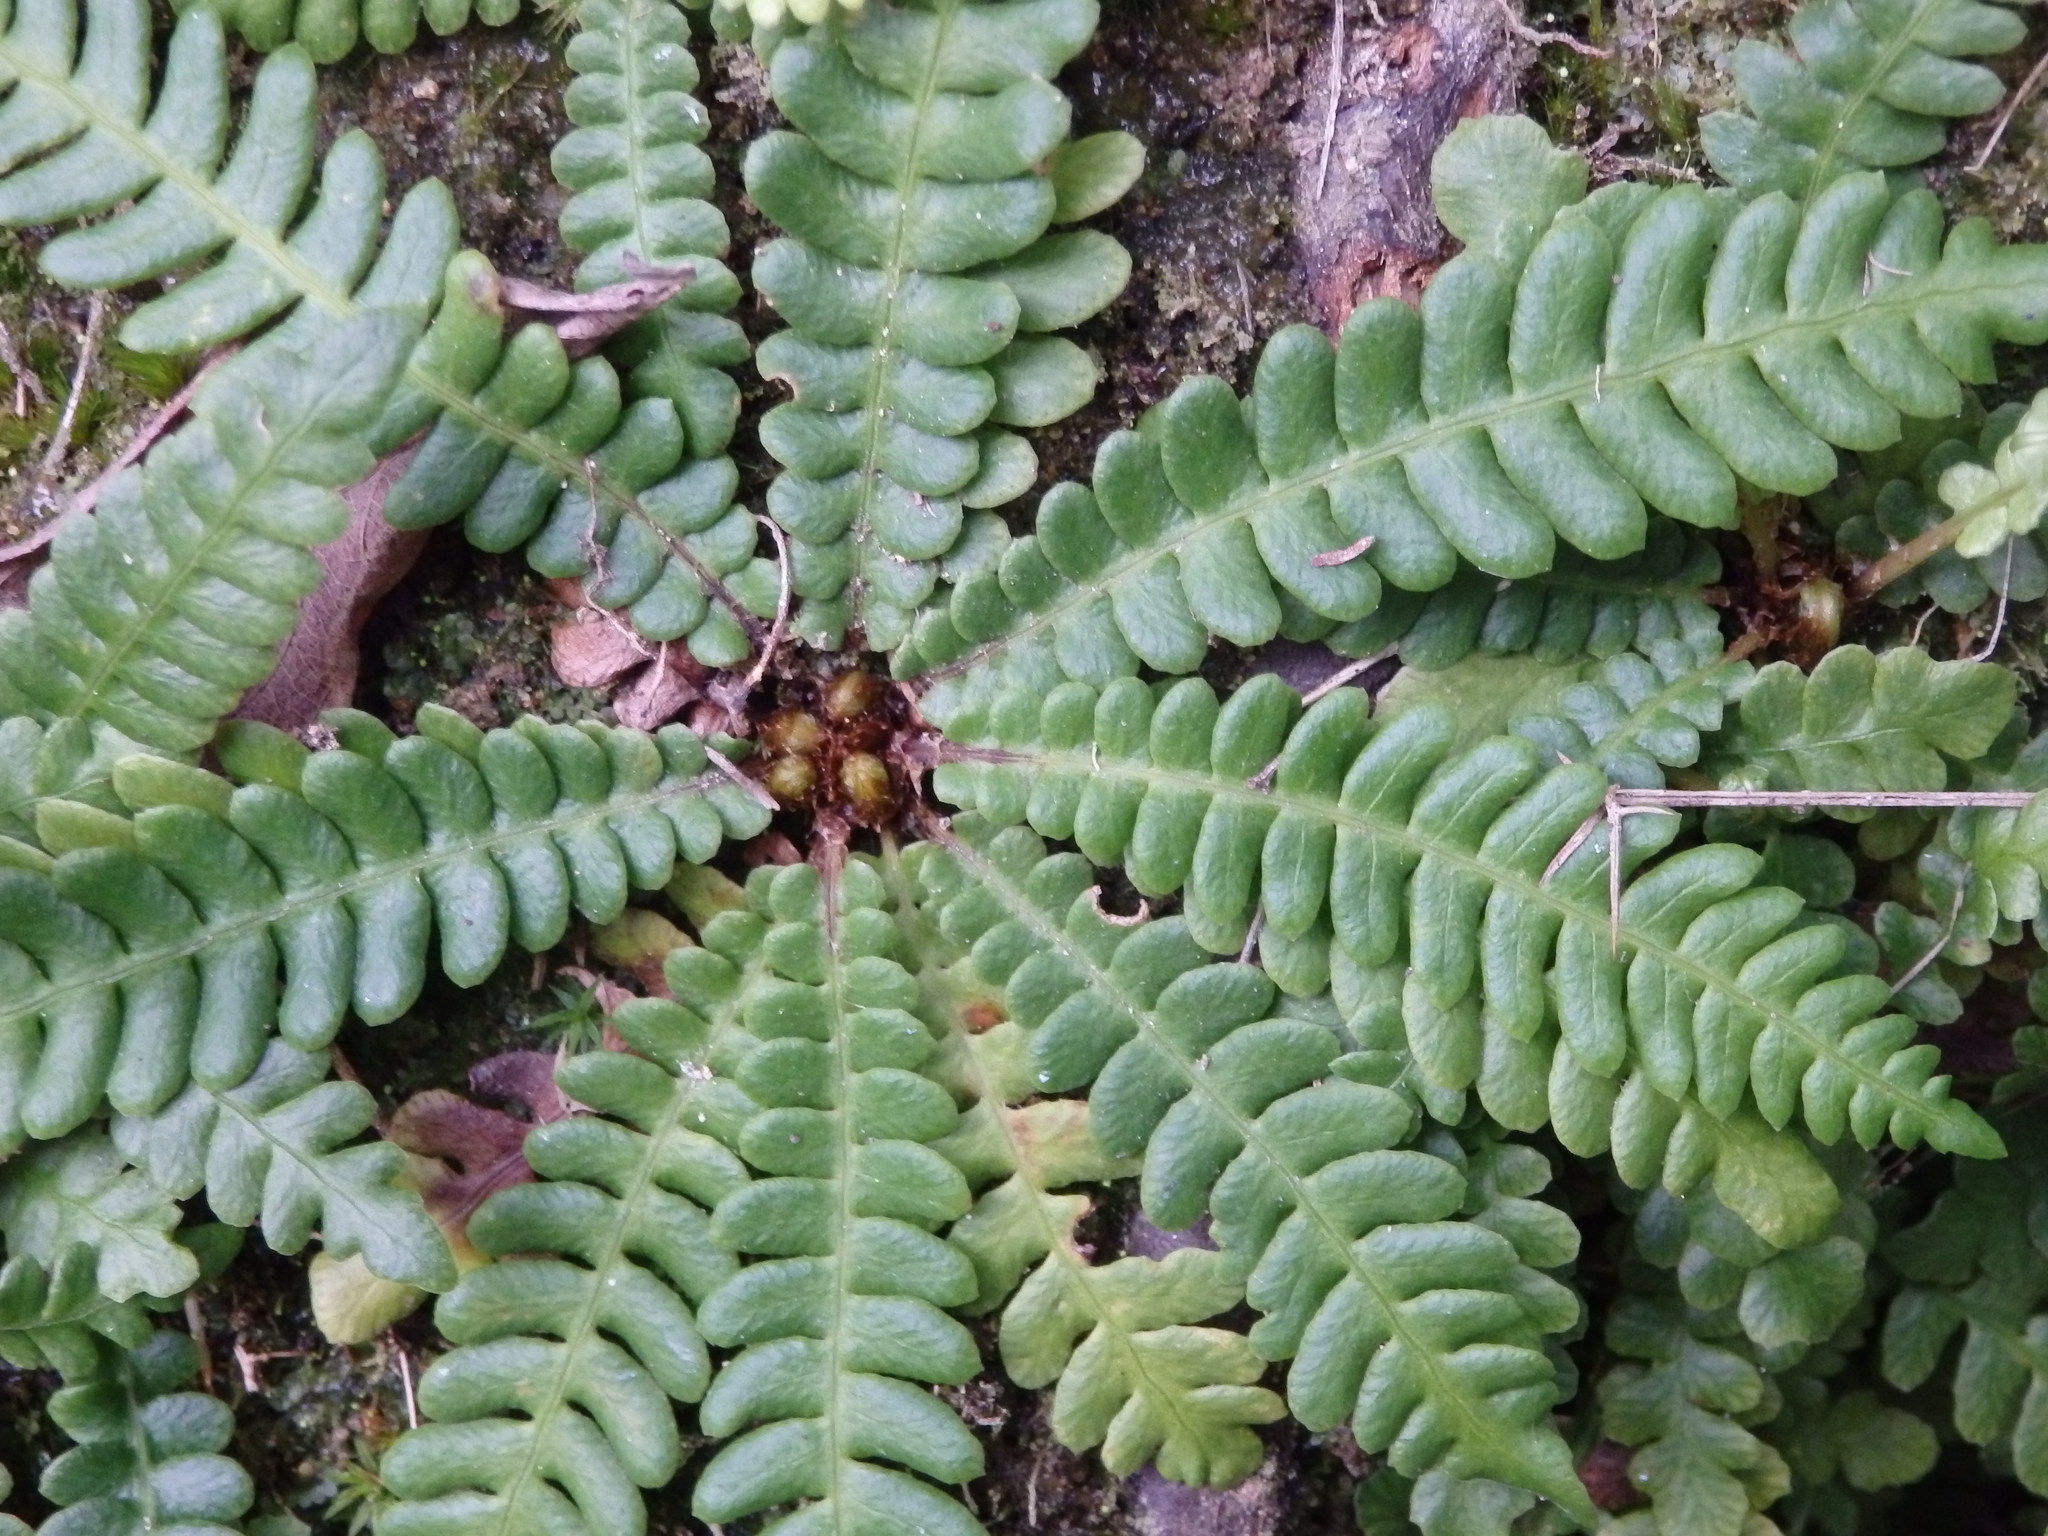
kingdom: Plantae
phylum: Tracheophyta
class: Polypodiopsida
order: Polypodiales
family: Blechnaceae
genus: Struthiopteris
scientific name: Struthiopteris spicant
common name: Deer fern
